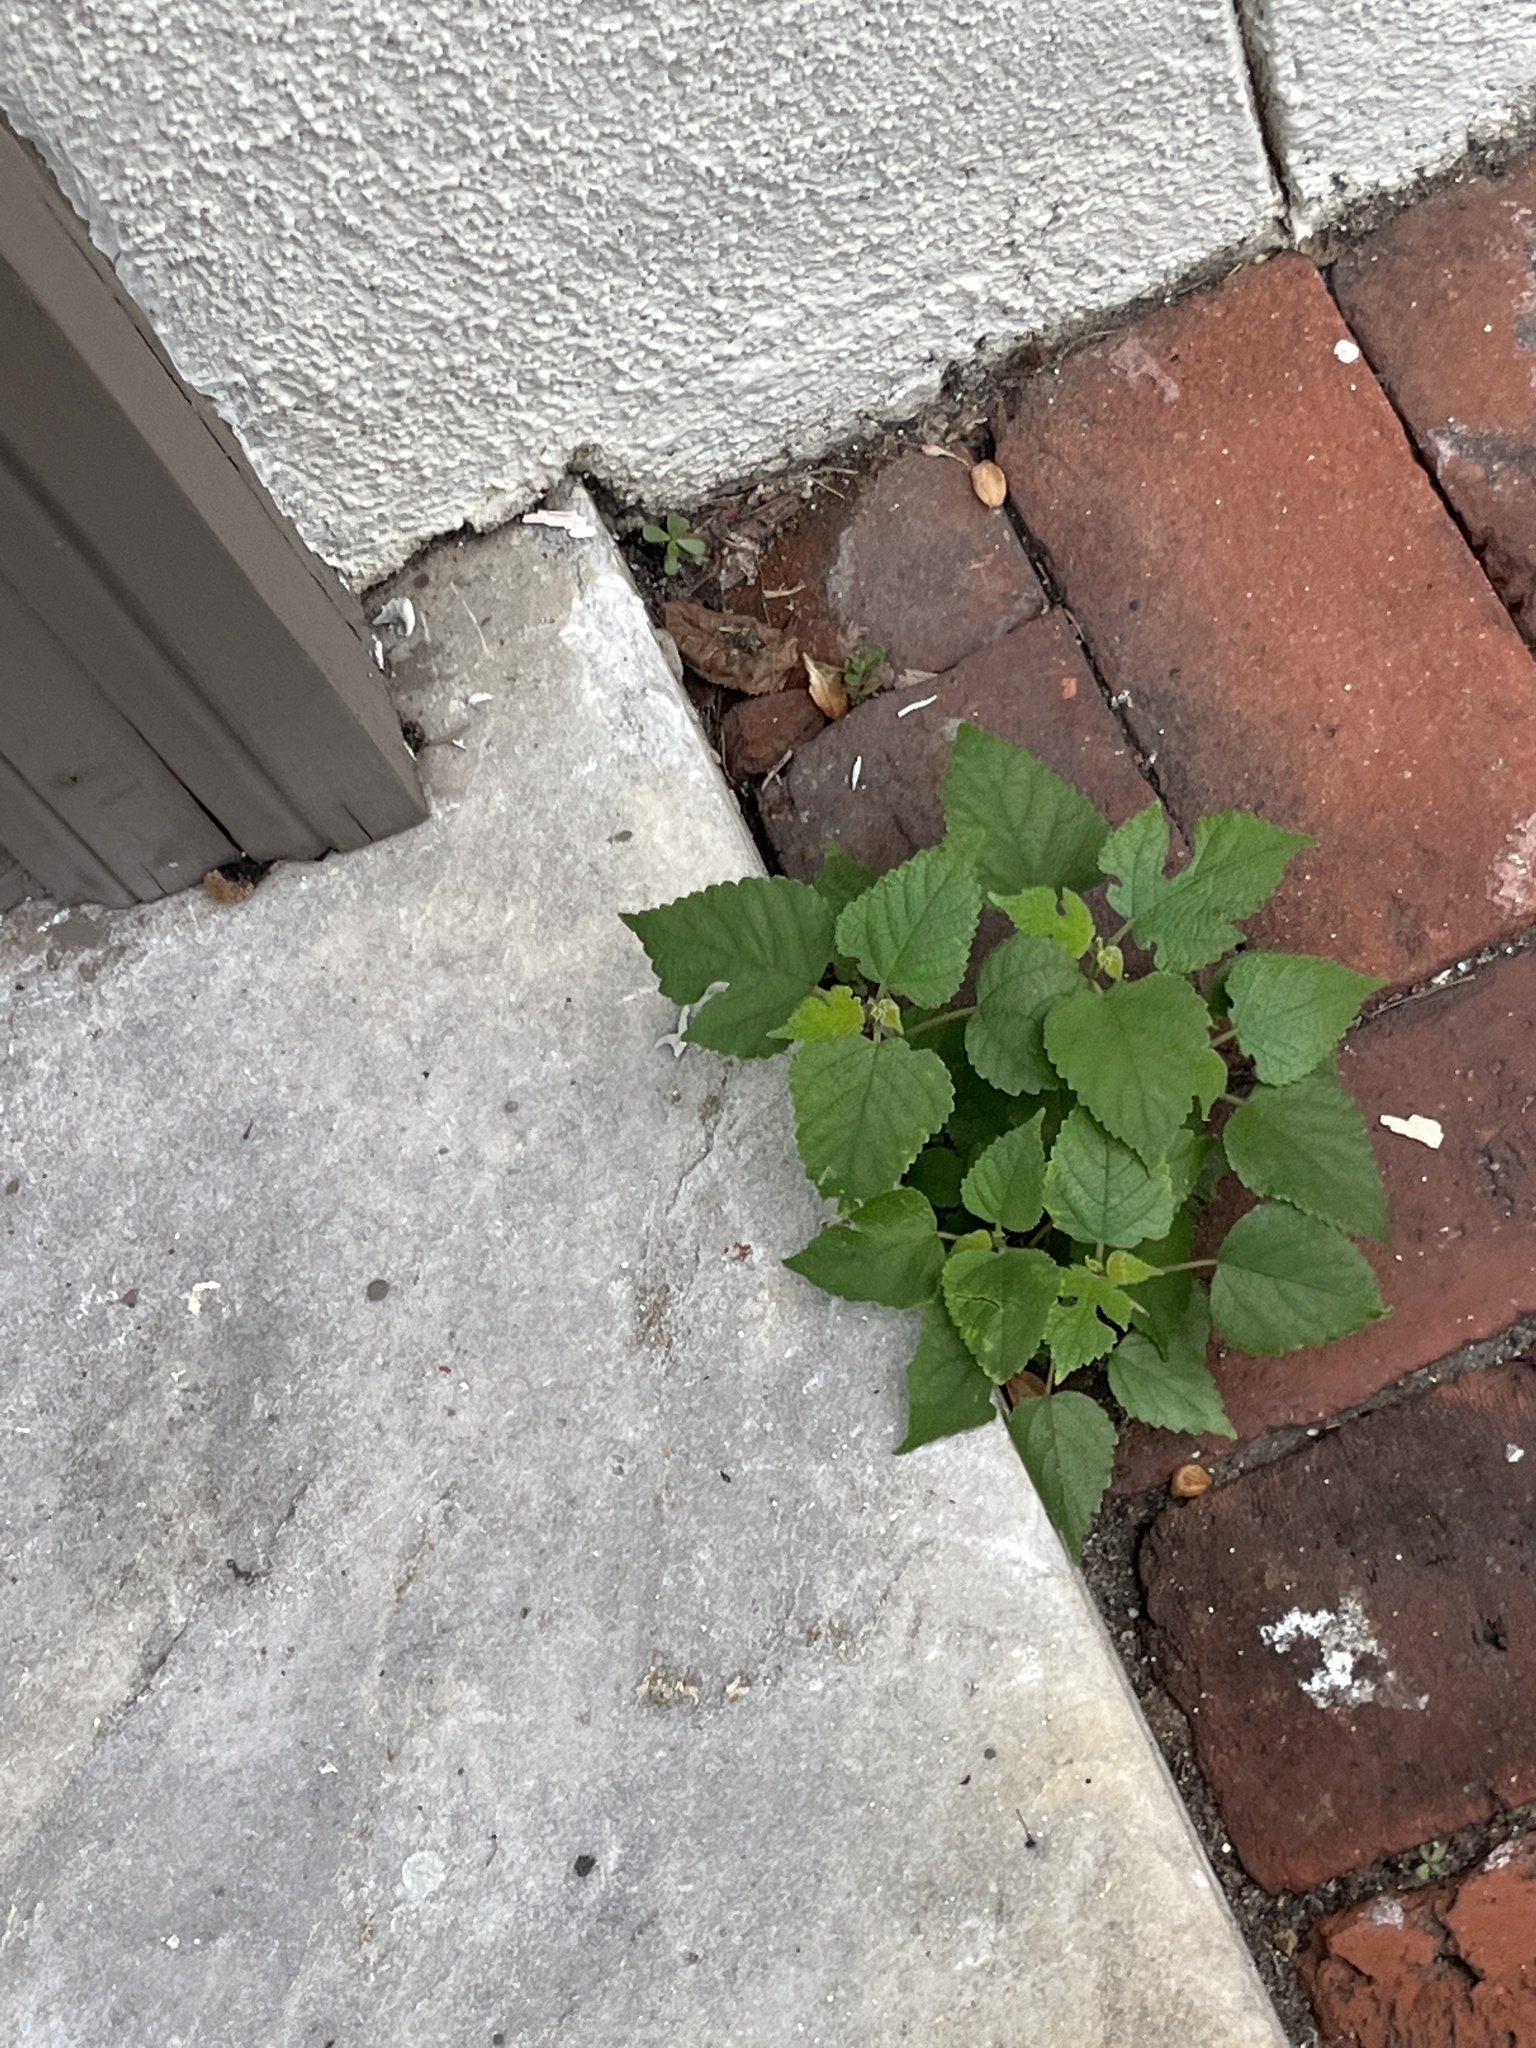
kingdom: Plantae
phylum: Tracheophyta
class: Magnoliopsida
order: Rosales
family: Moraceae
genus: Broussonetia
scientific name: Broussonetia papyrifera
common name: Paper mulberry
